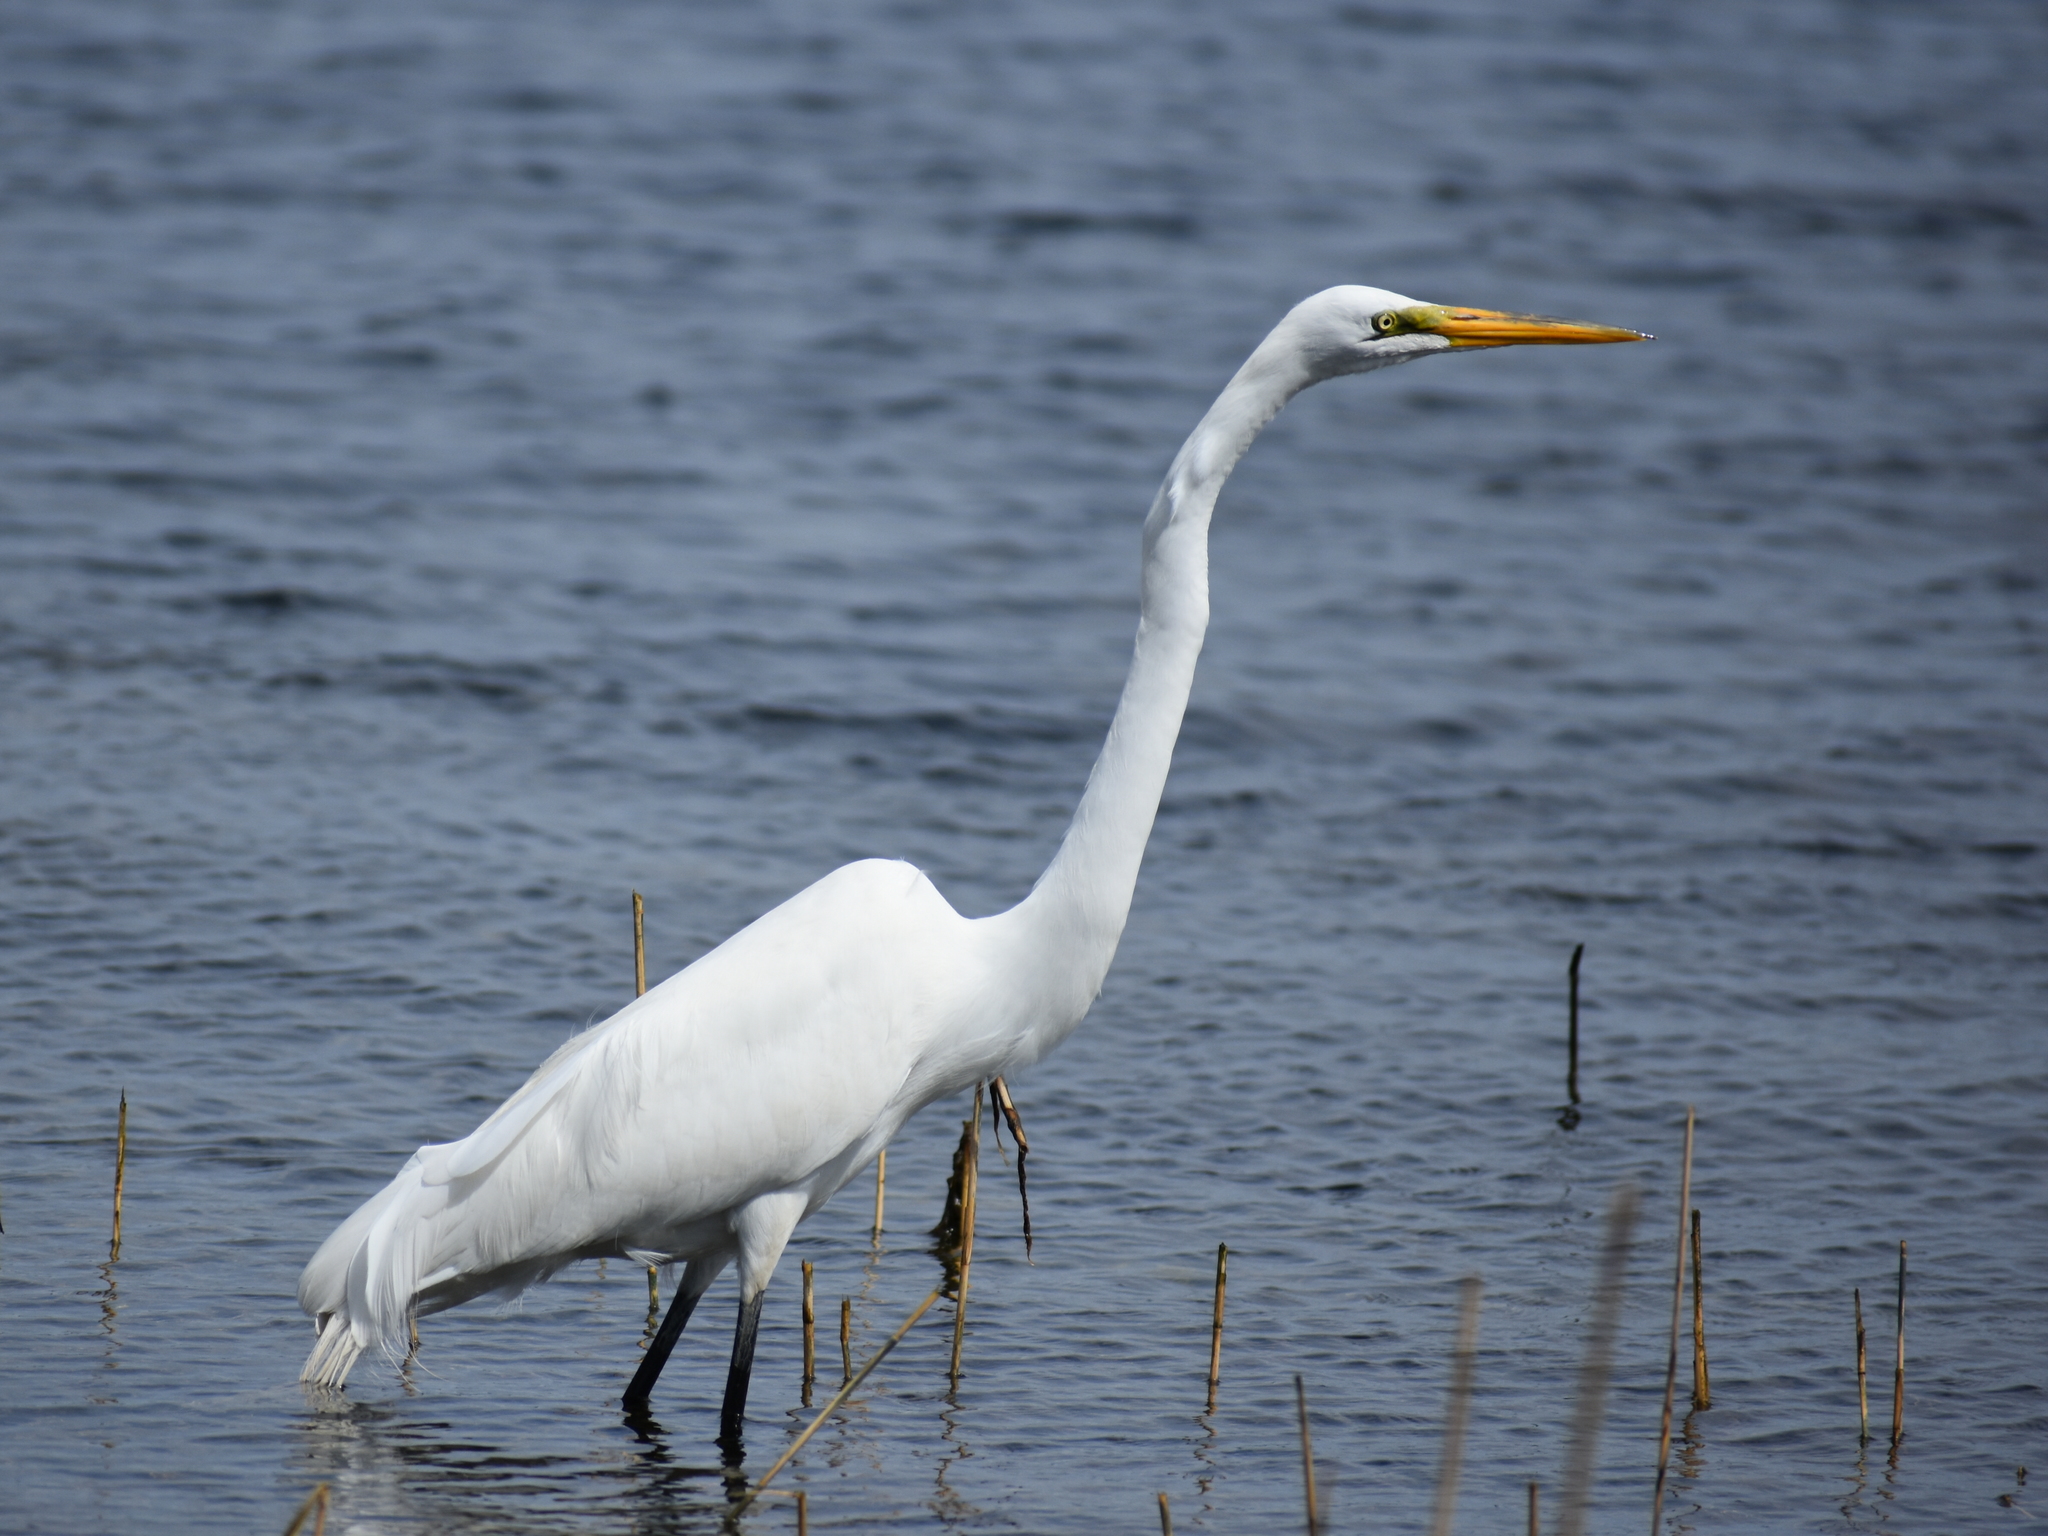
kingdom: Animalia
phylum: Chordata
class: Aves
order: Pelecaniformes
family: Ardeidae
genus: Ardea
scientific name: Ardea alba
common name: Great egret
